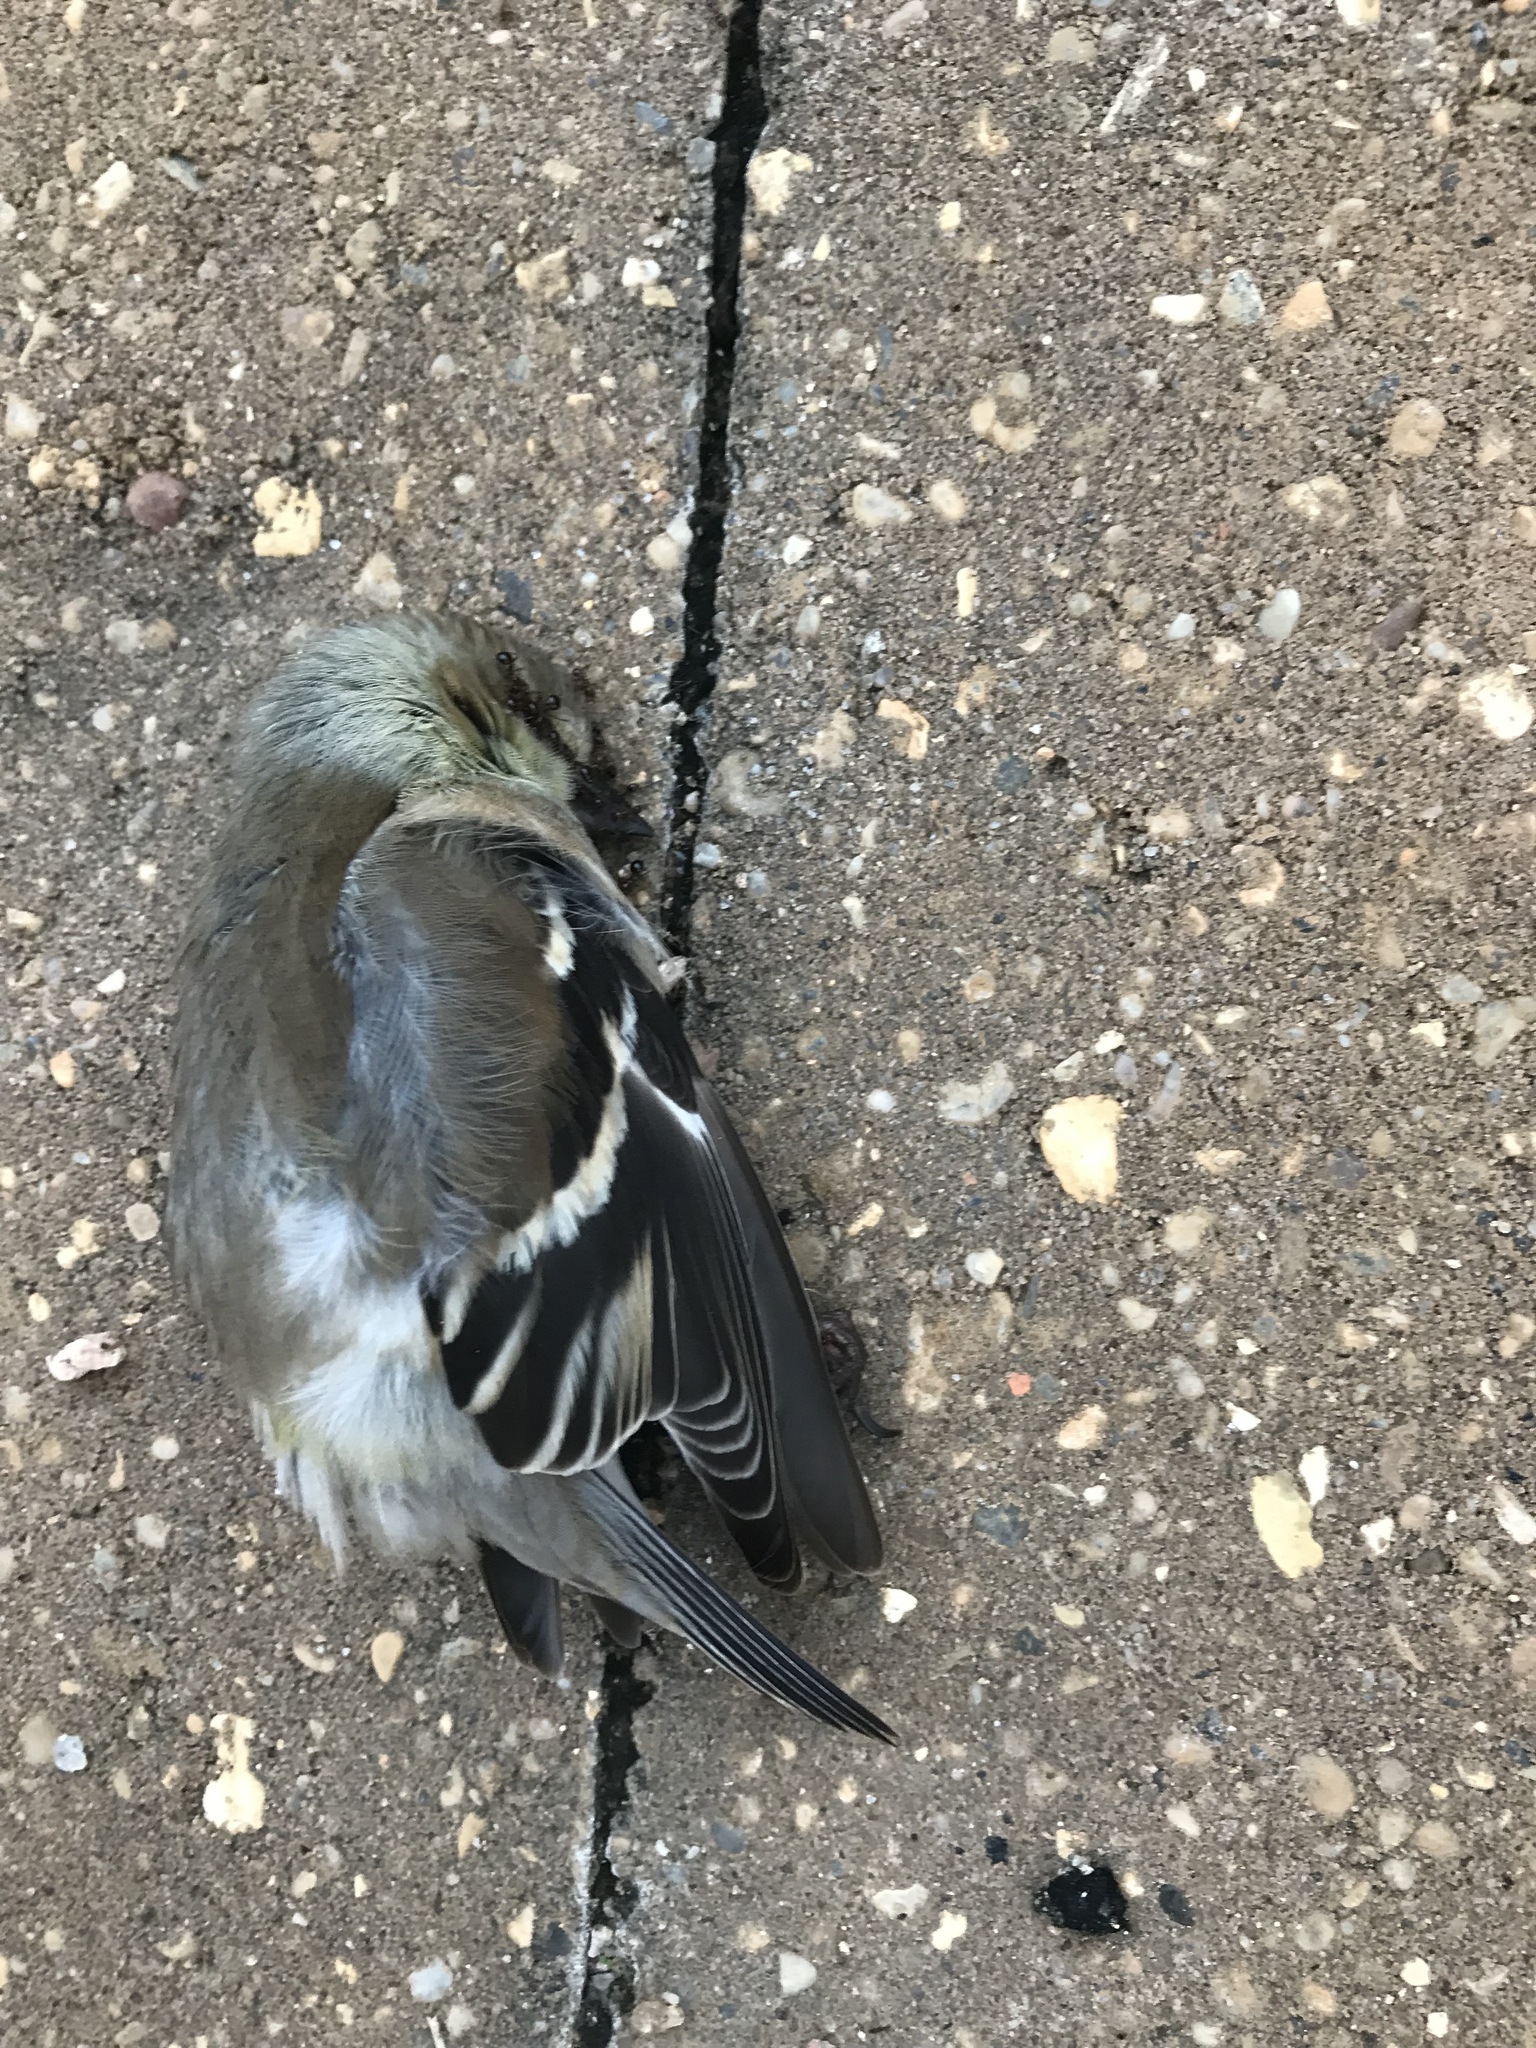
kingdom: Animalia
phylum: Chordata
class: Aves
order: Passeriformes
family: Fringillidae
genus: Spinus
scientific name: Spinus tristis
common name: American goldfinch
